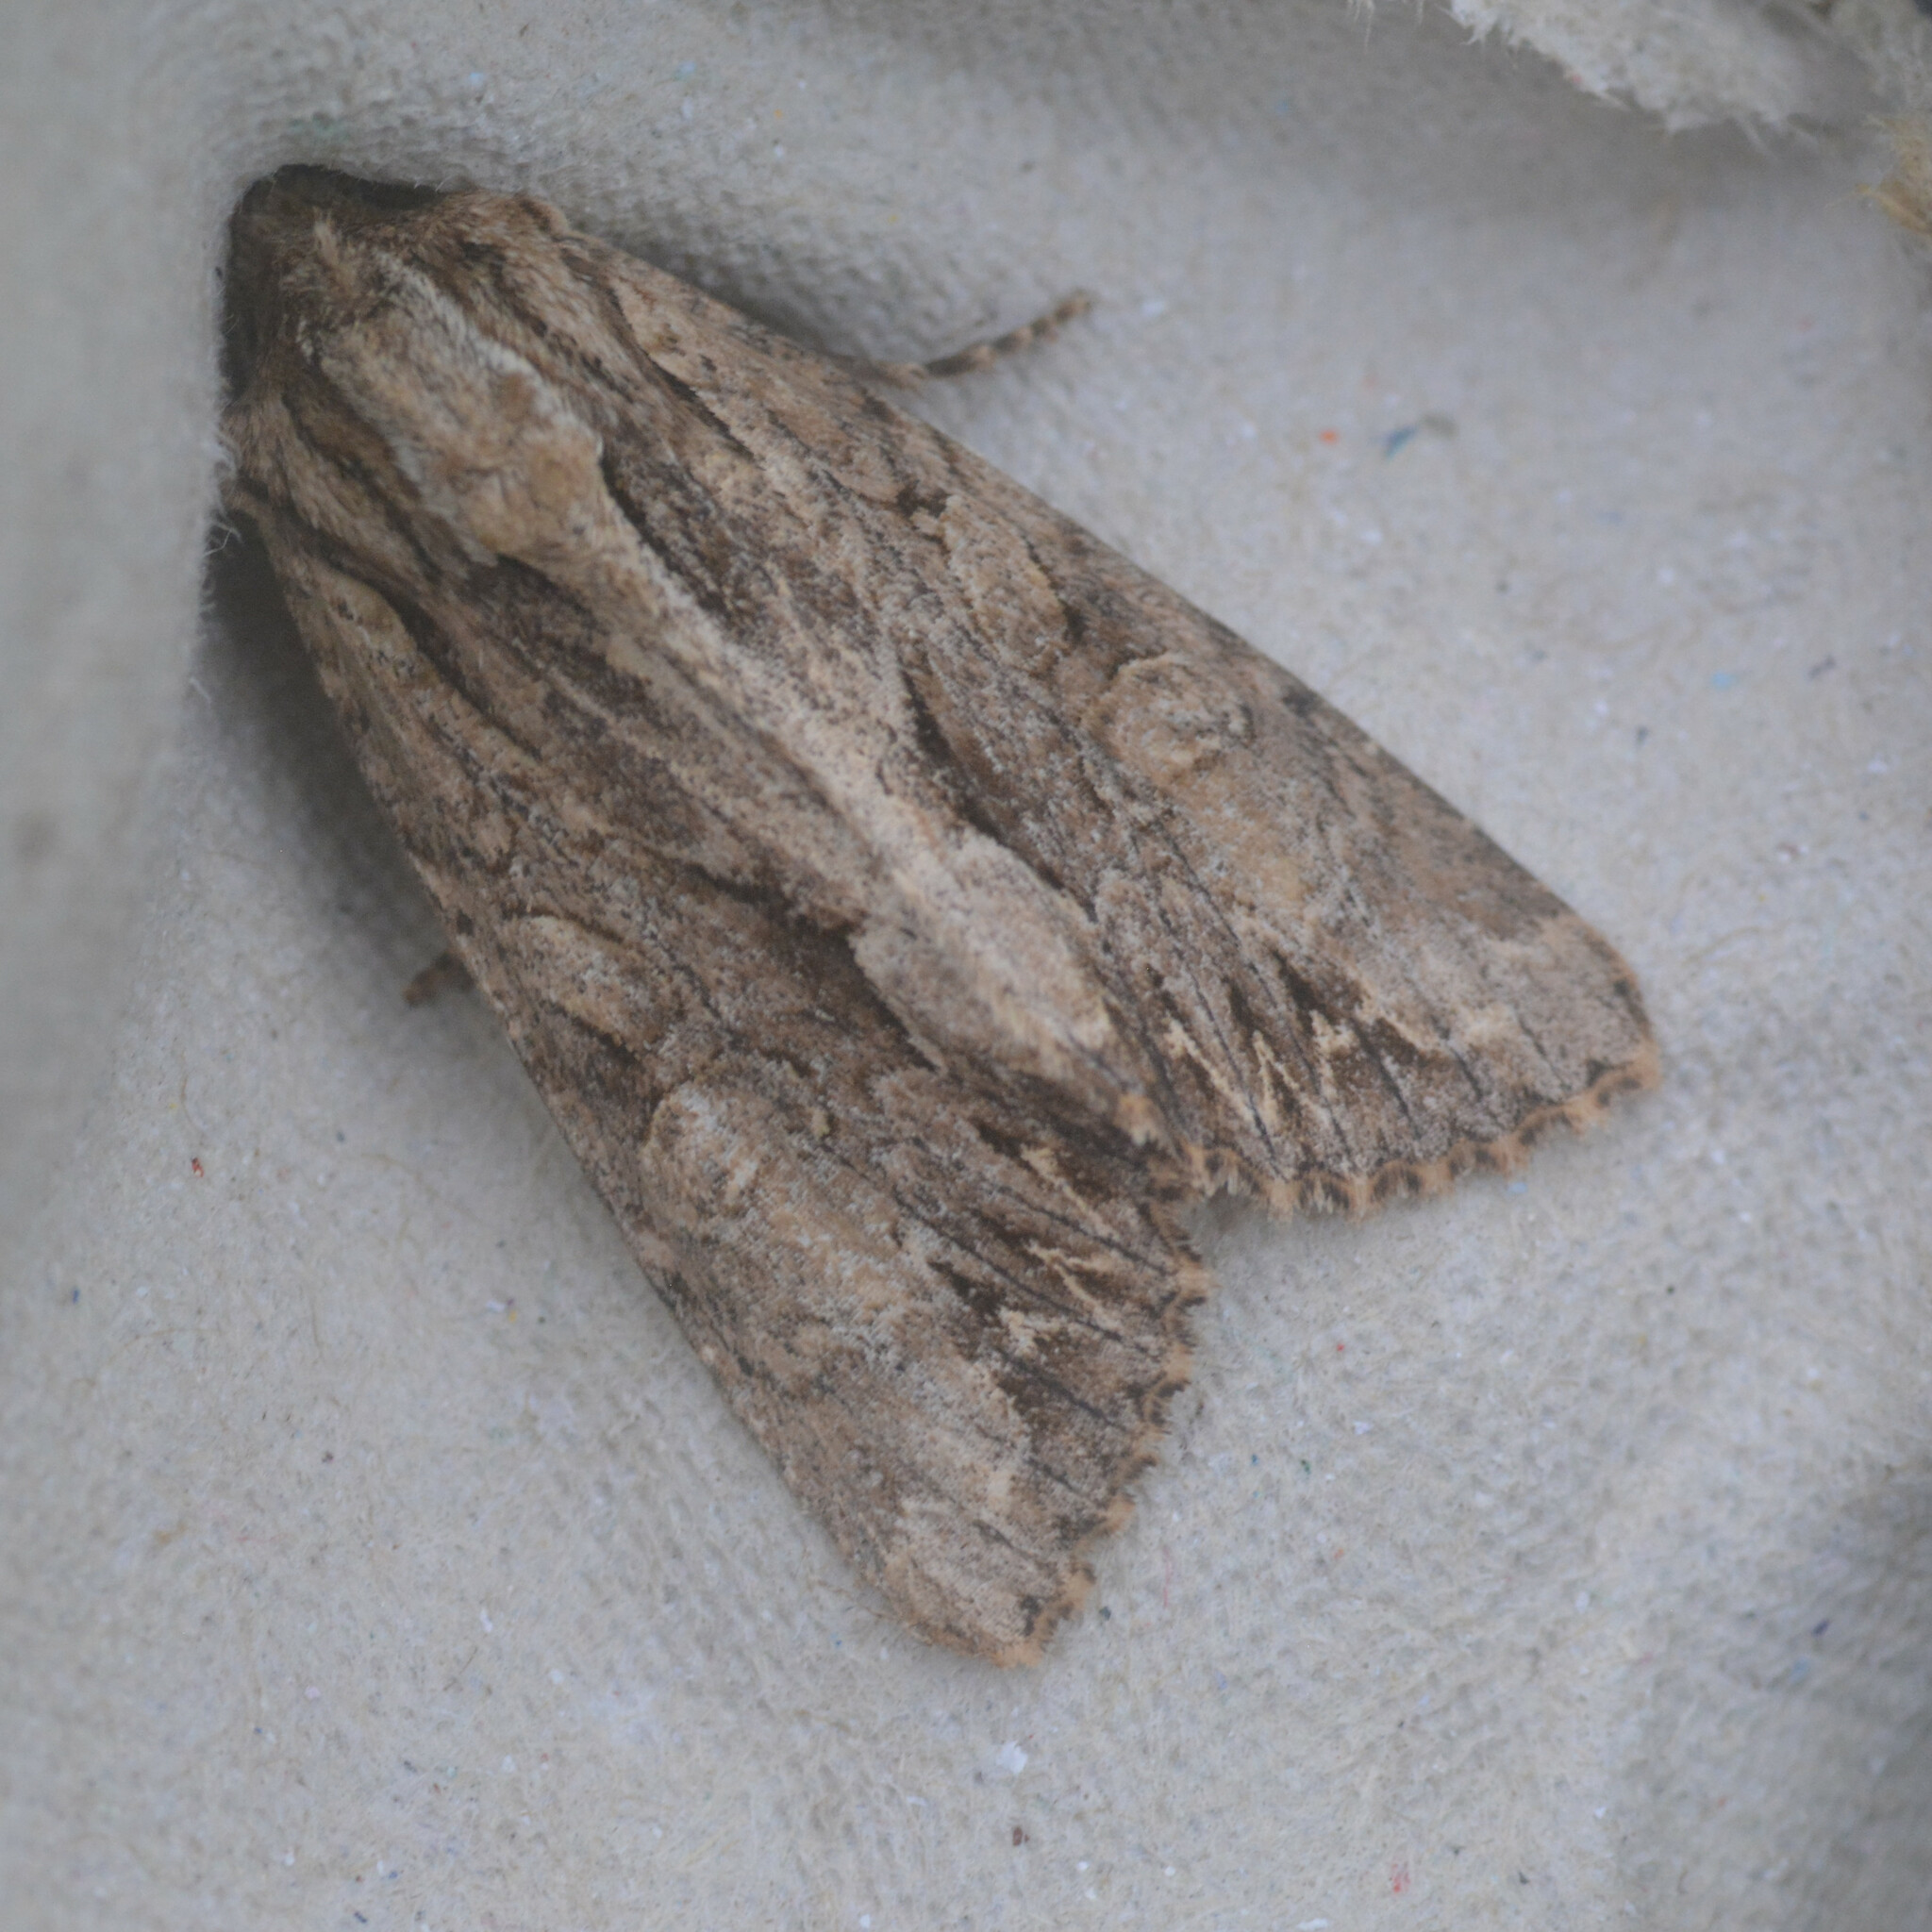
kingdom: Animalia
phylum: Arthropoda
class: Insecta
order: Lepidoptera
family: Noctuidae
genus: Apamea
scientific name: Apamea monoglypha
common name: Dark arches
